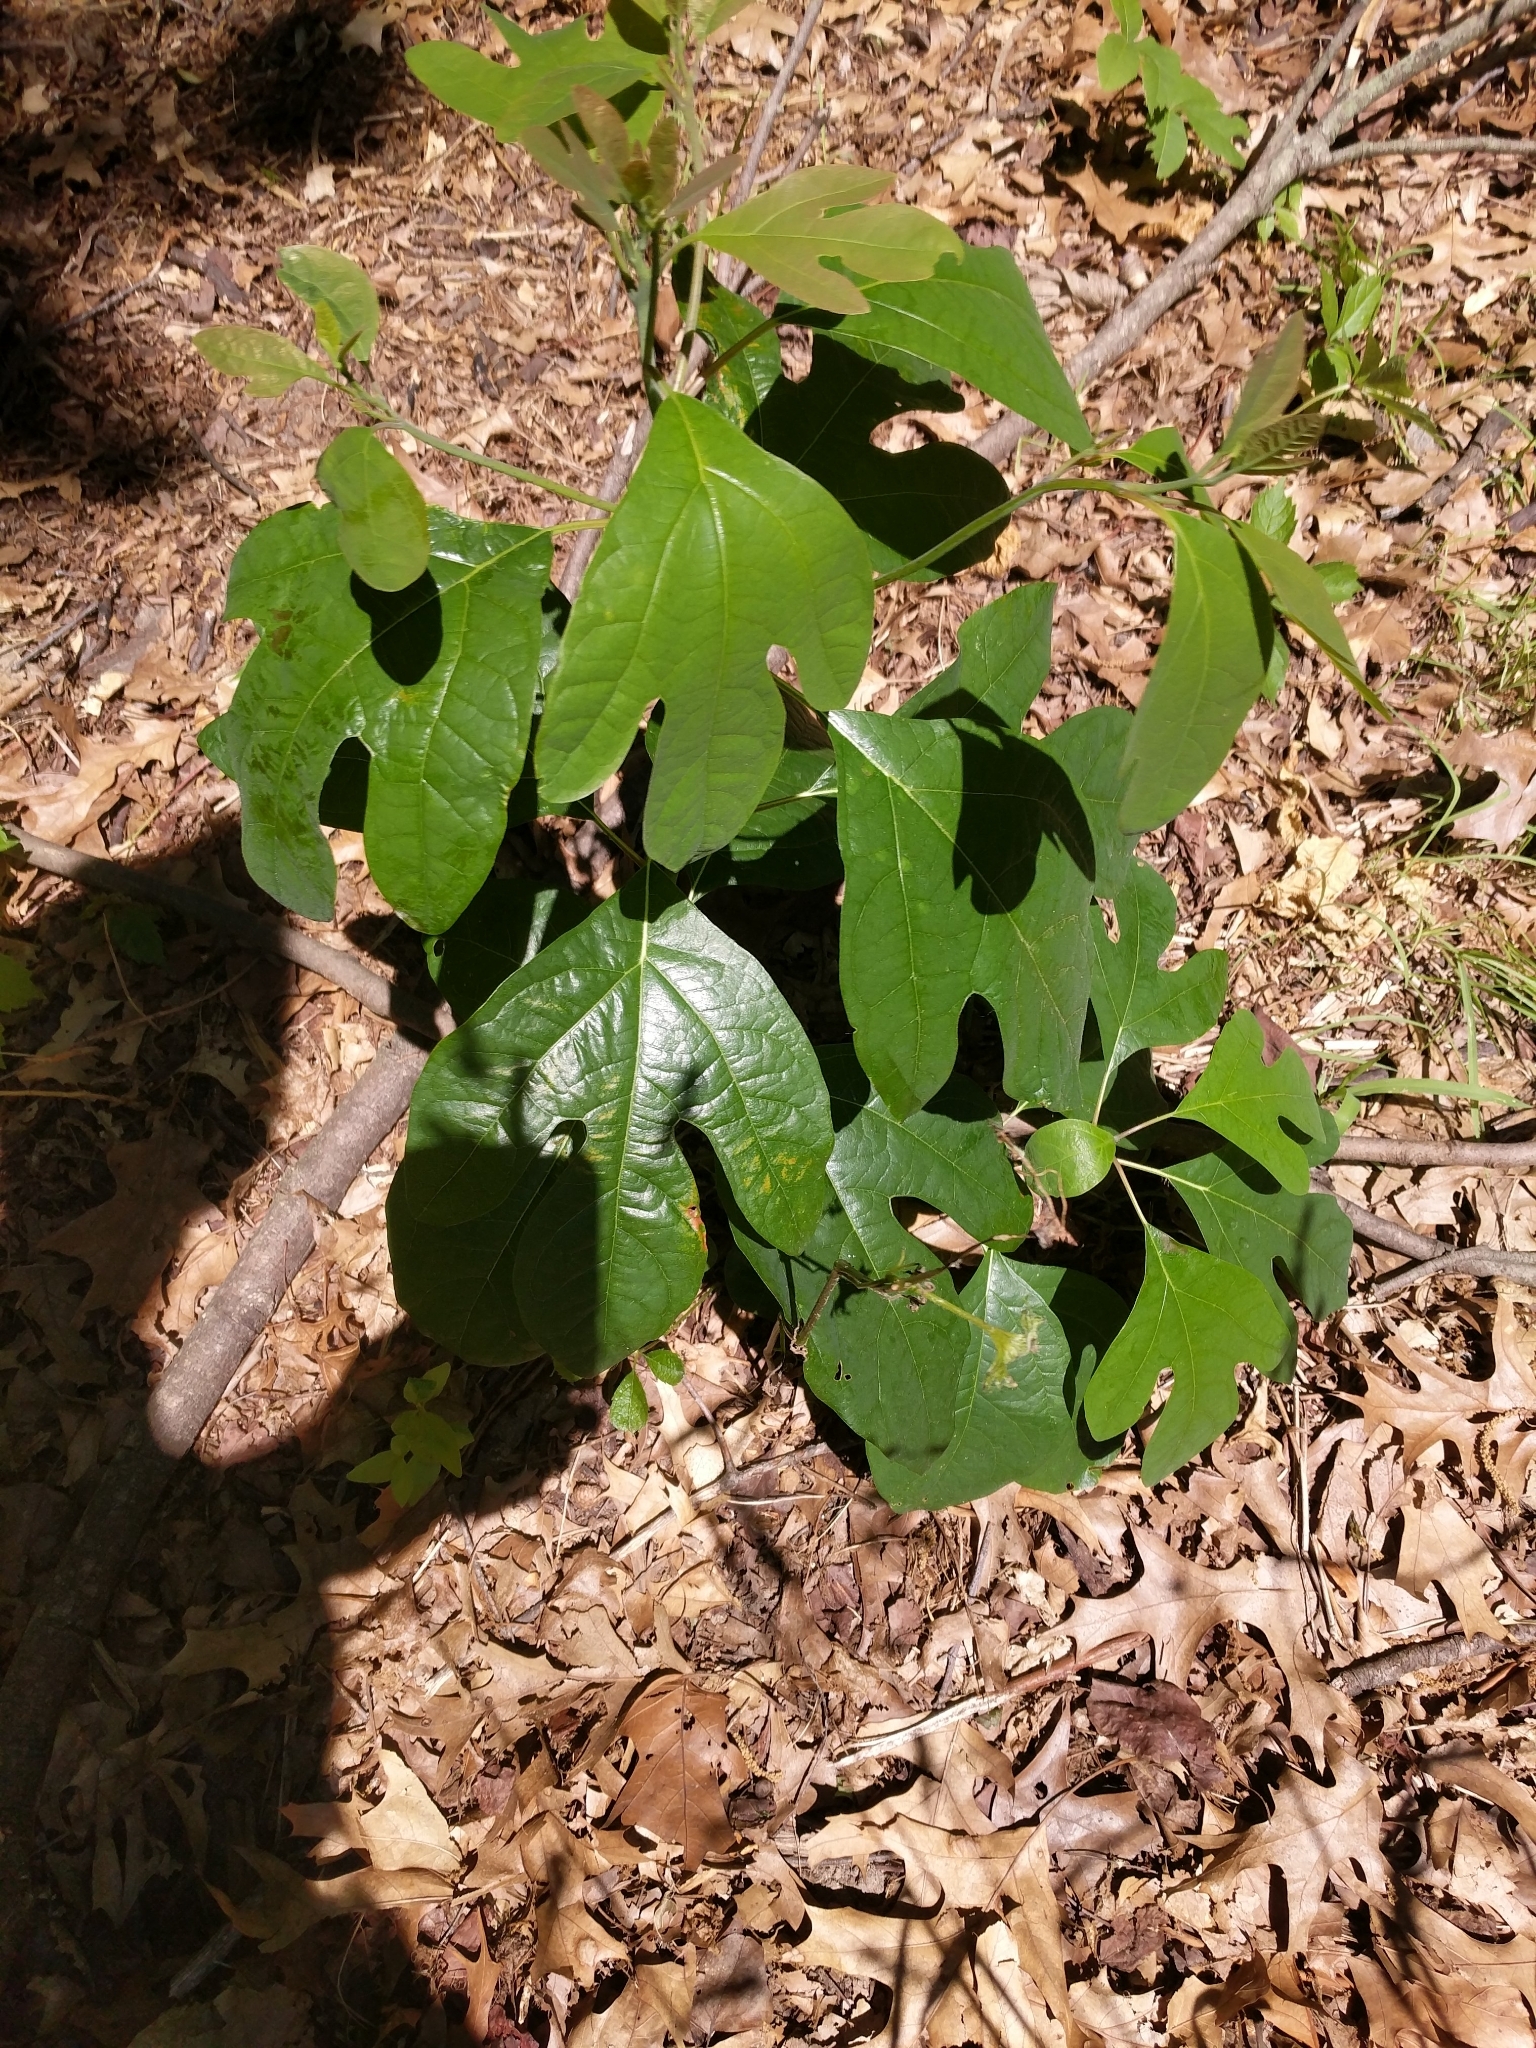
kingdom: Plantae
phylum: Tracheophyta
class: Magnoliopsida
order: Laurales
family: Lauraceae
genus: Sassafras
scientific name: Sassafras albidum
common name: Sassafras
